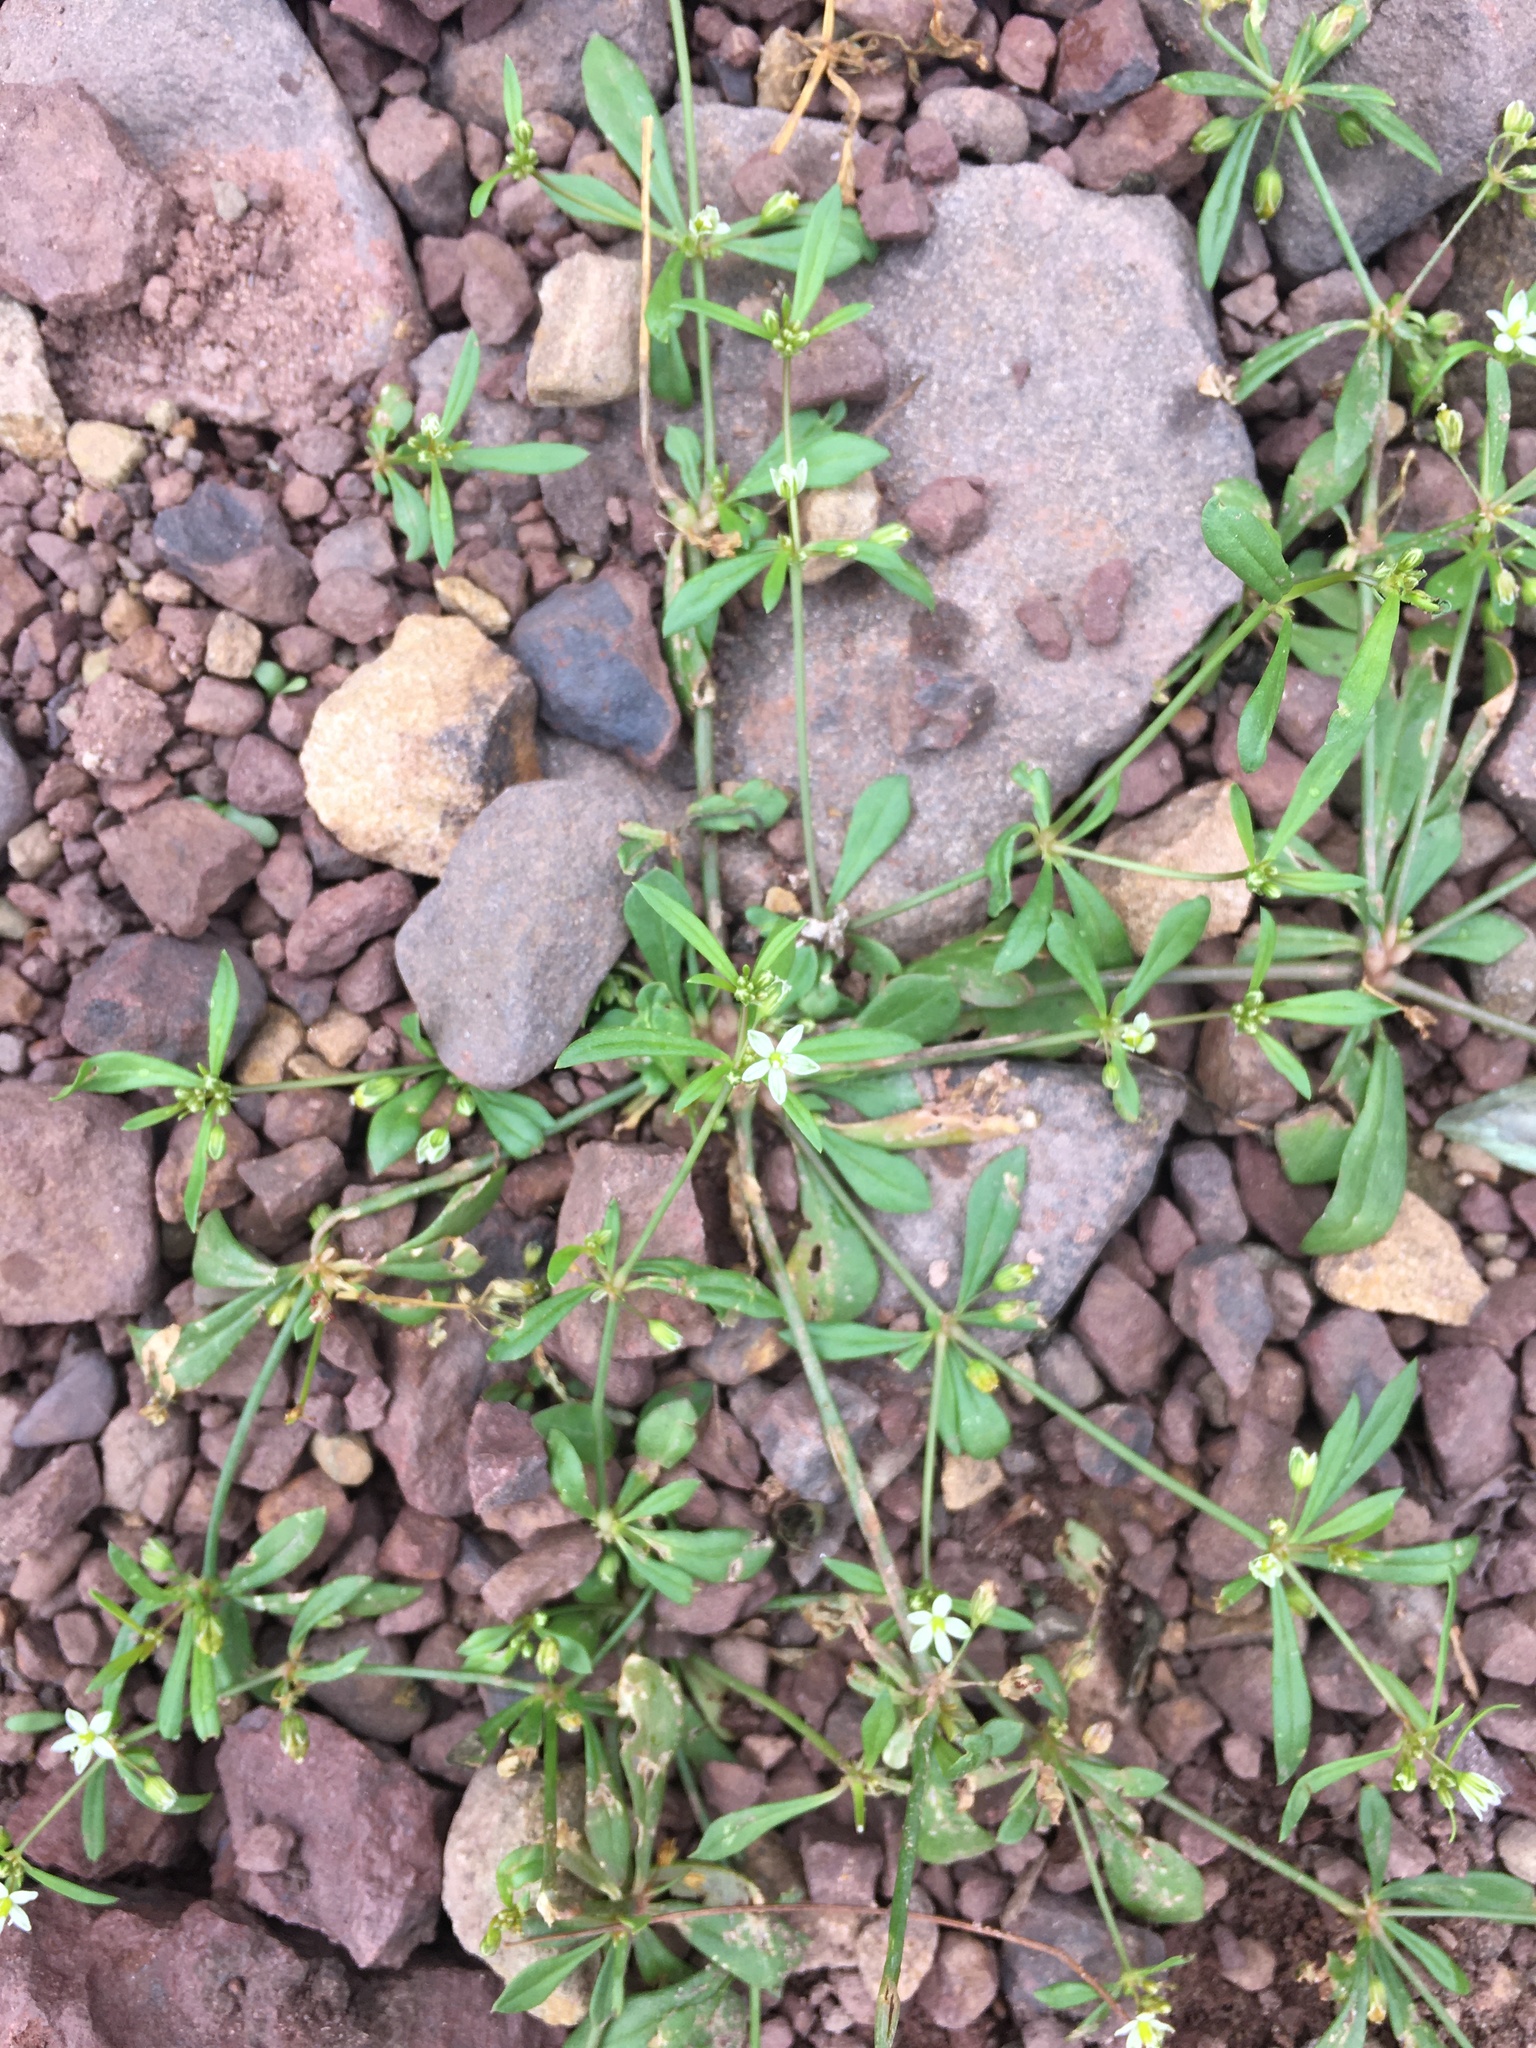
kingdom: Plantae
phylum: Tracheophyta
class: Magnoliopsida
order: Caryophyllales
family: Molluginaceae
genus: Mollugo
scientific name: Mollugo verticillata
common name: Green carpetweed
